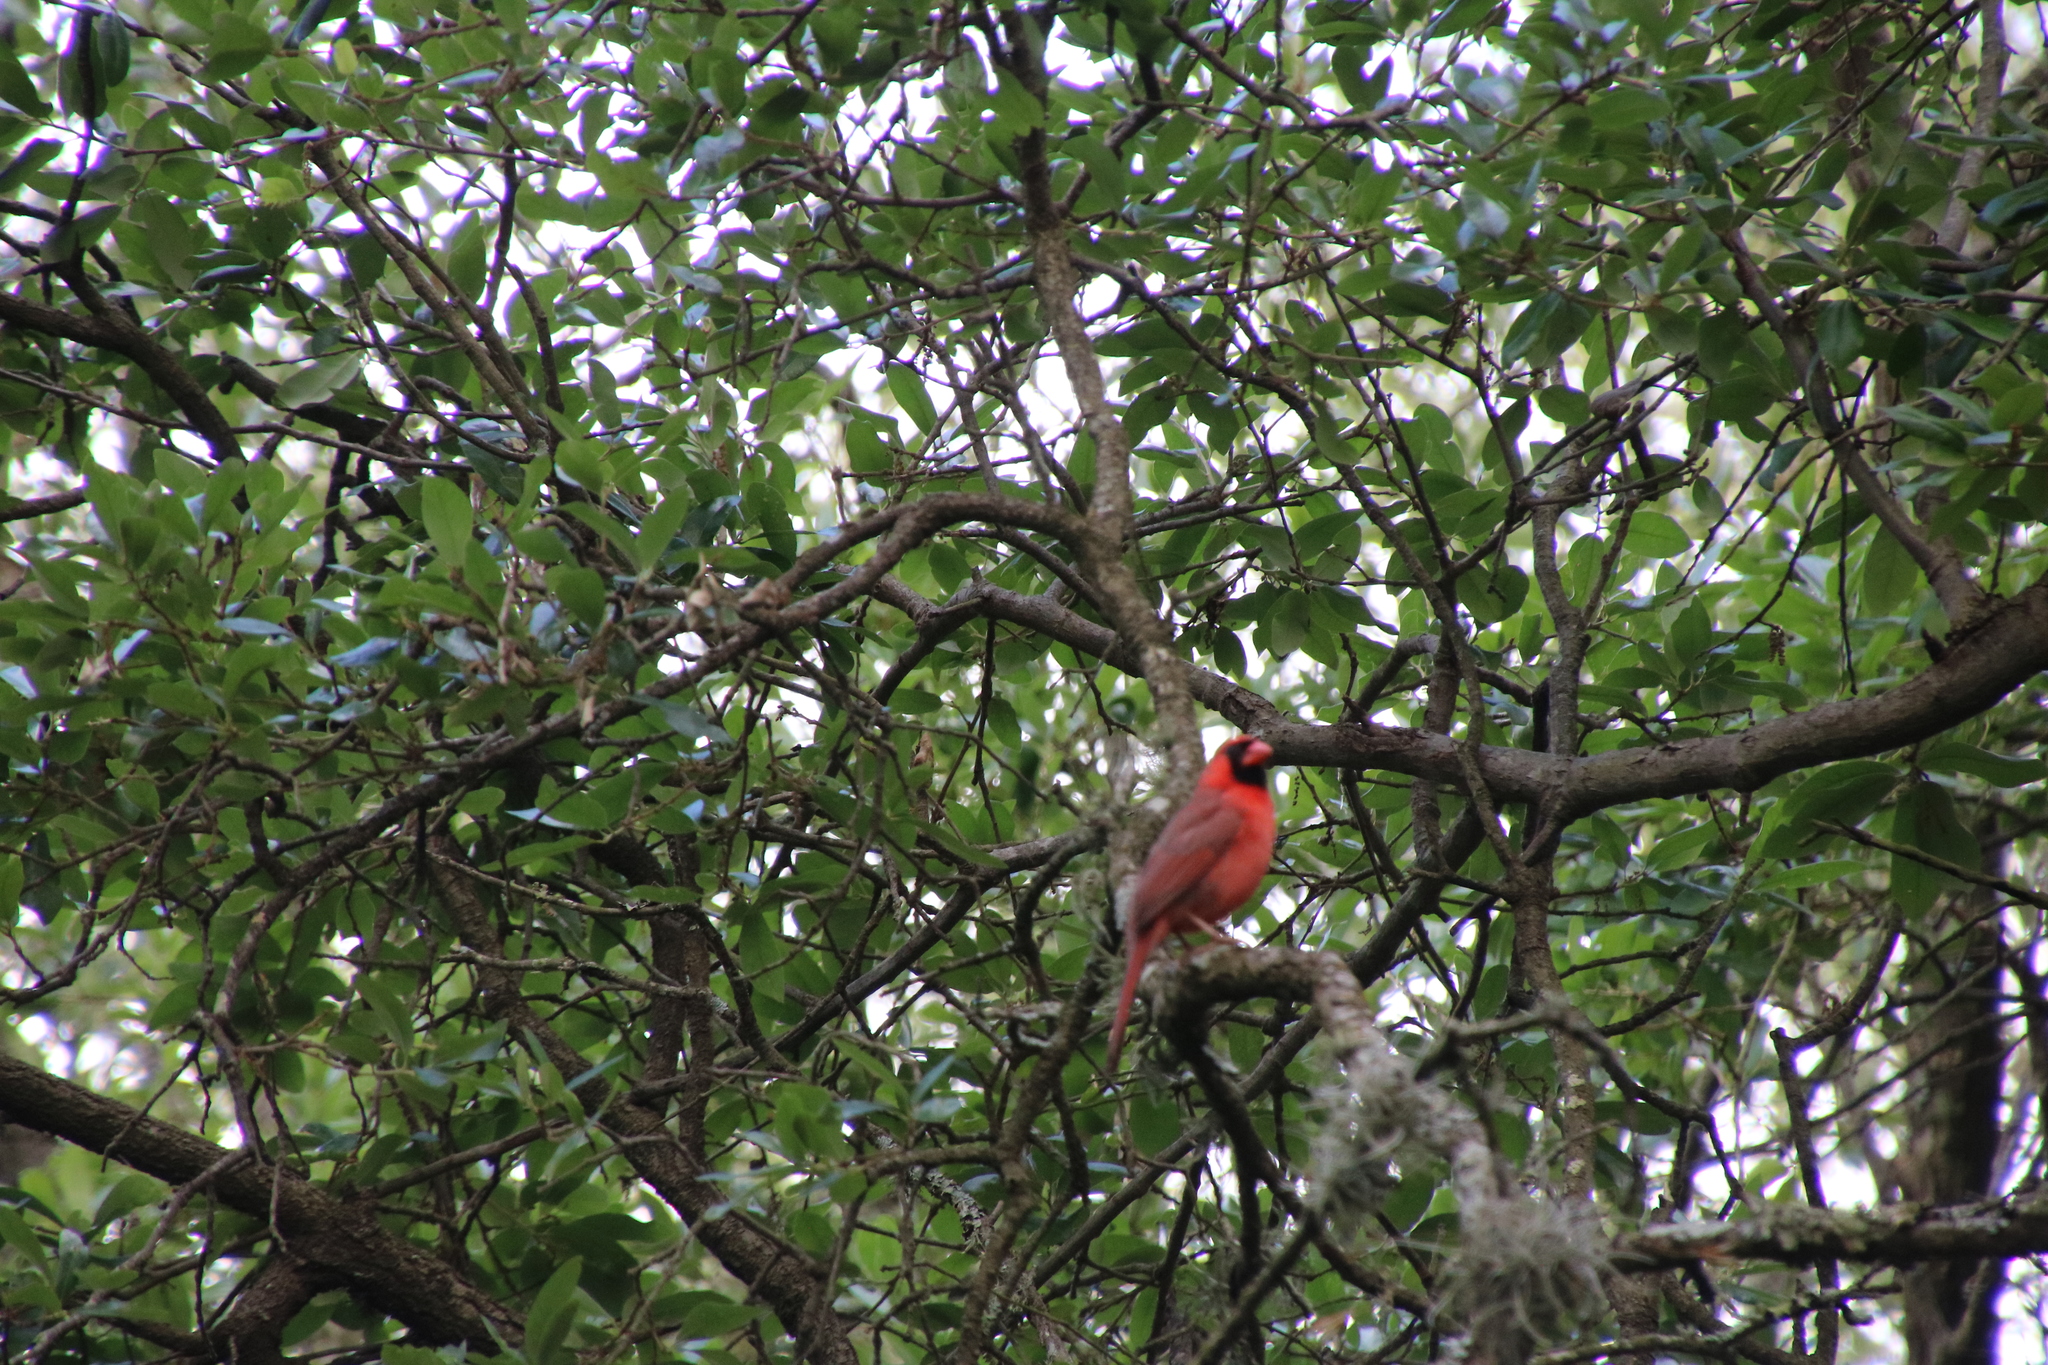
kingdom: Animalia
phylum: Chordata
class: Aves
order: Passeriformes
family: Cardinalidae
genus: Cardinalis
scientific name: Cardinalis cardinalis
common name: Northern cardinal
